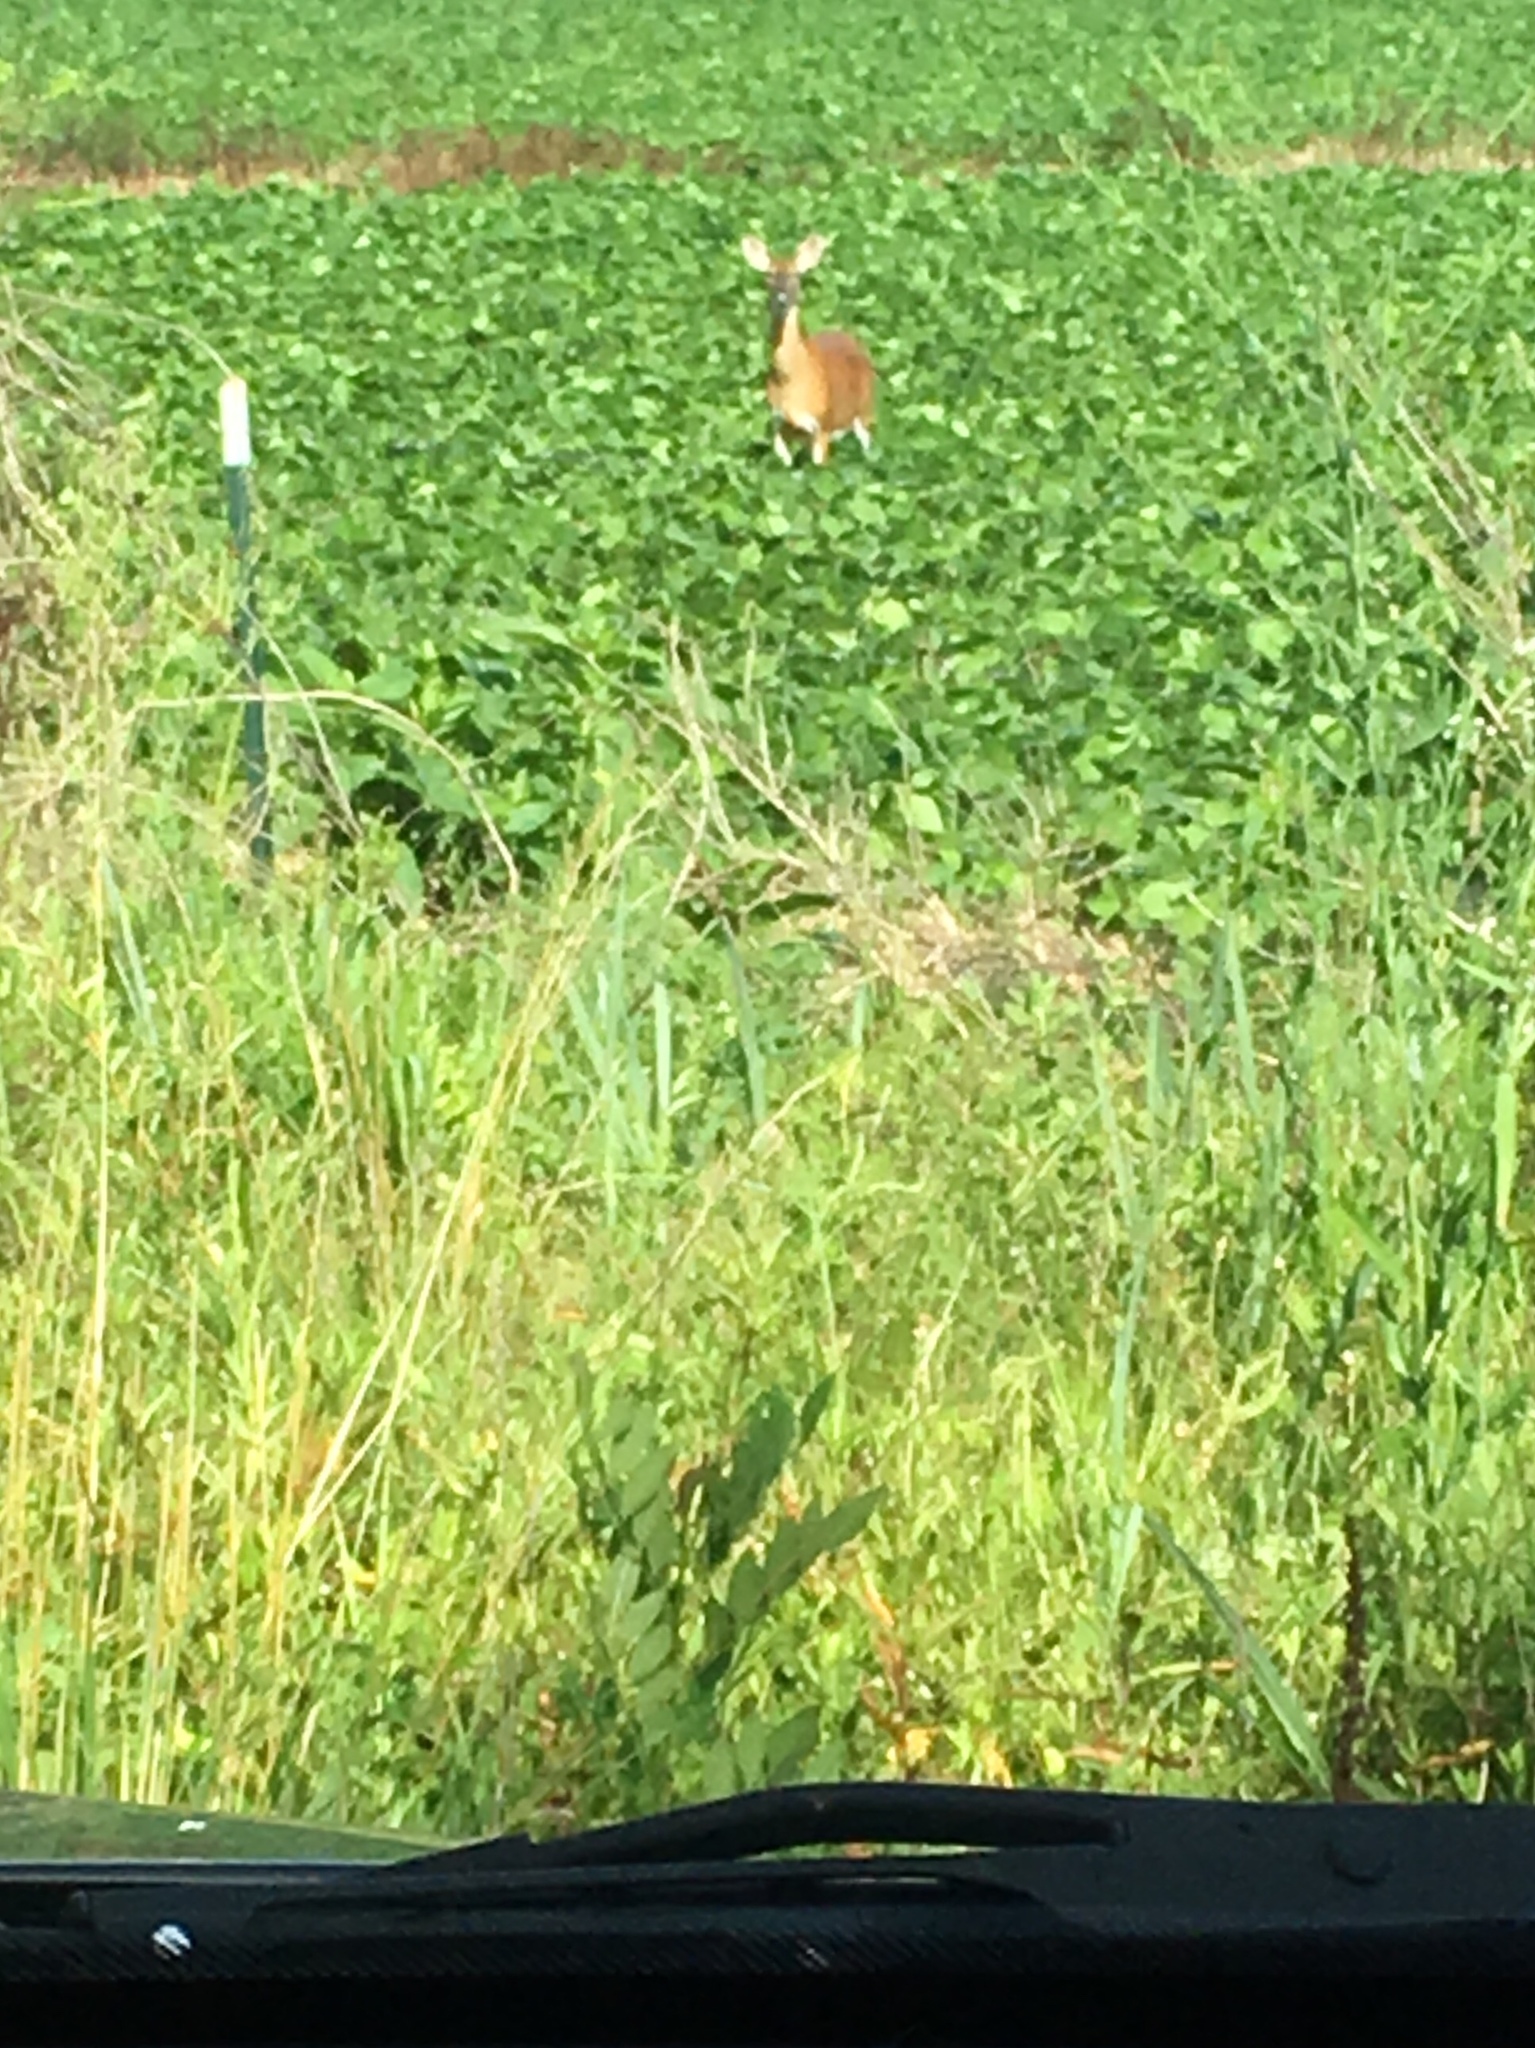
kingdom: Animalia
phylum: Chordata
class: Mammalia
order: Artiodactyla
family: Cervidae
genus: Odocoileus
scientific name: Odocoileus virginianus
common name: White-tailed deer
